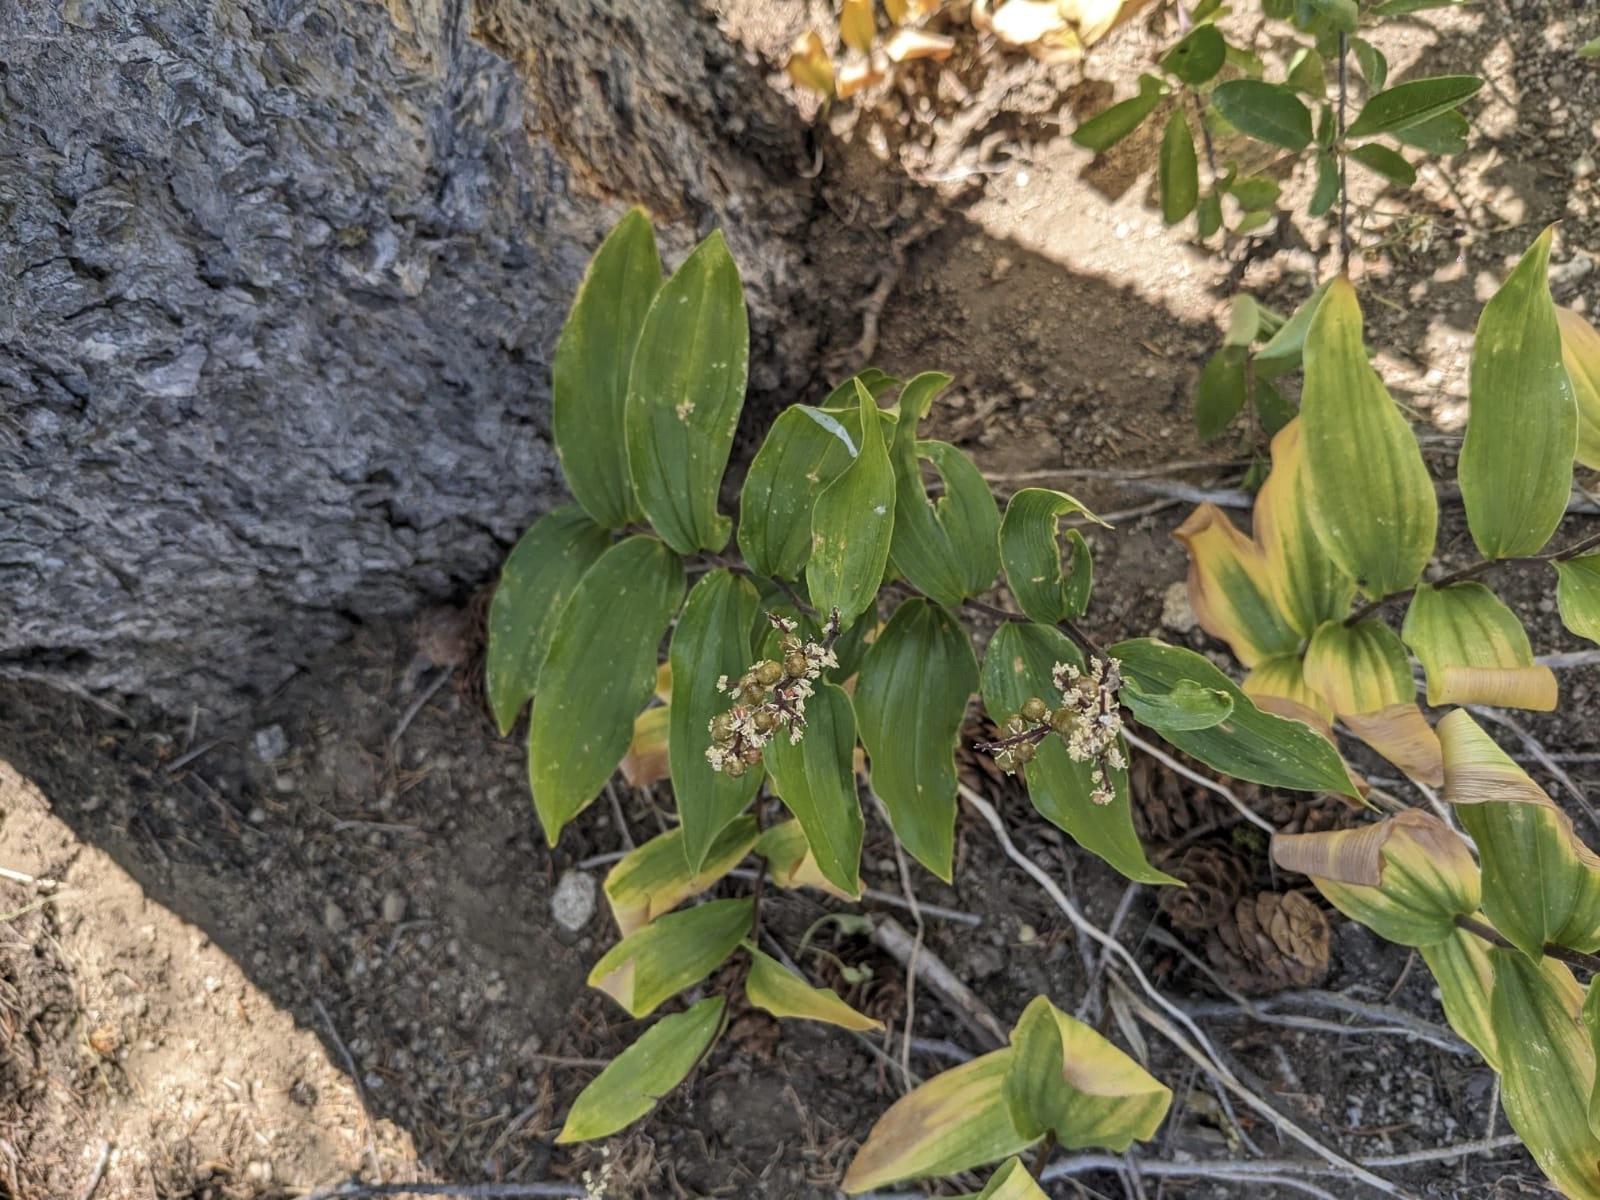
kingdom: Plantae
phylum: Tracheophyta
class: Liliopsida
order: Asparagales
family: Asparagaceae
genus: Maianthemum
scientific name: Maianthemum racemosum
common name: False spikenard
